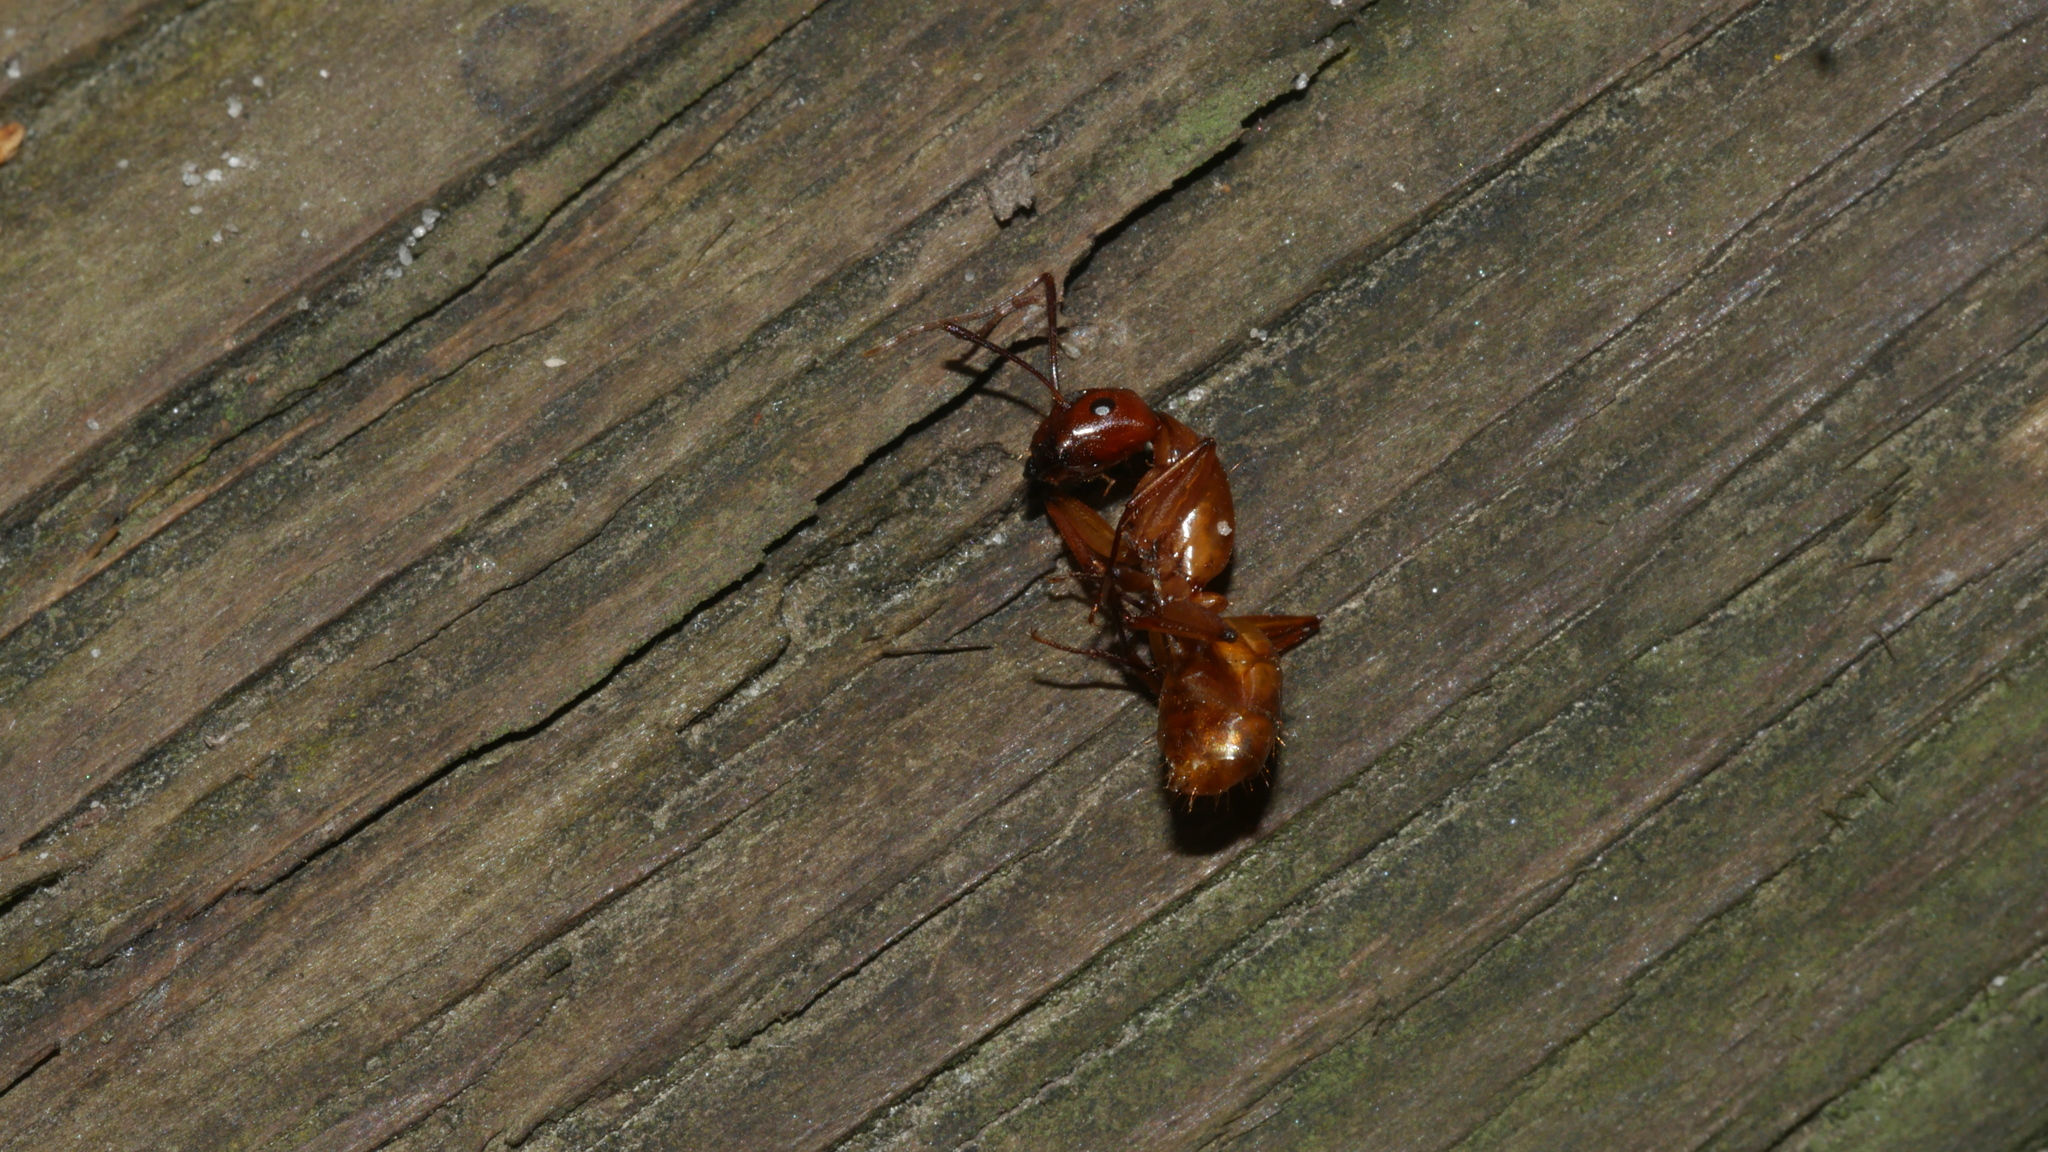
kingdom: Animalia
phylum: Arthropoda
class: Insecta
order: Hymenoptera
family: Formicidae
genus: Camponotus
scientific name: Camponotus castaneus
